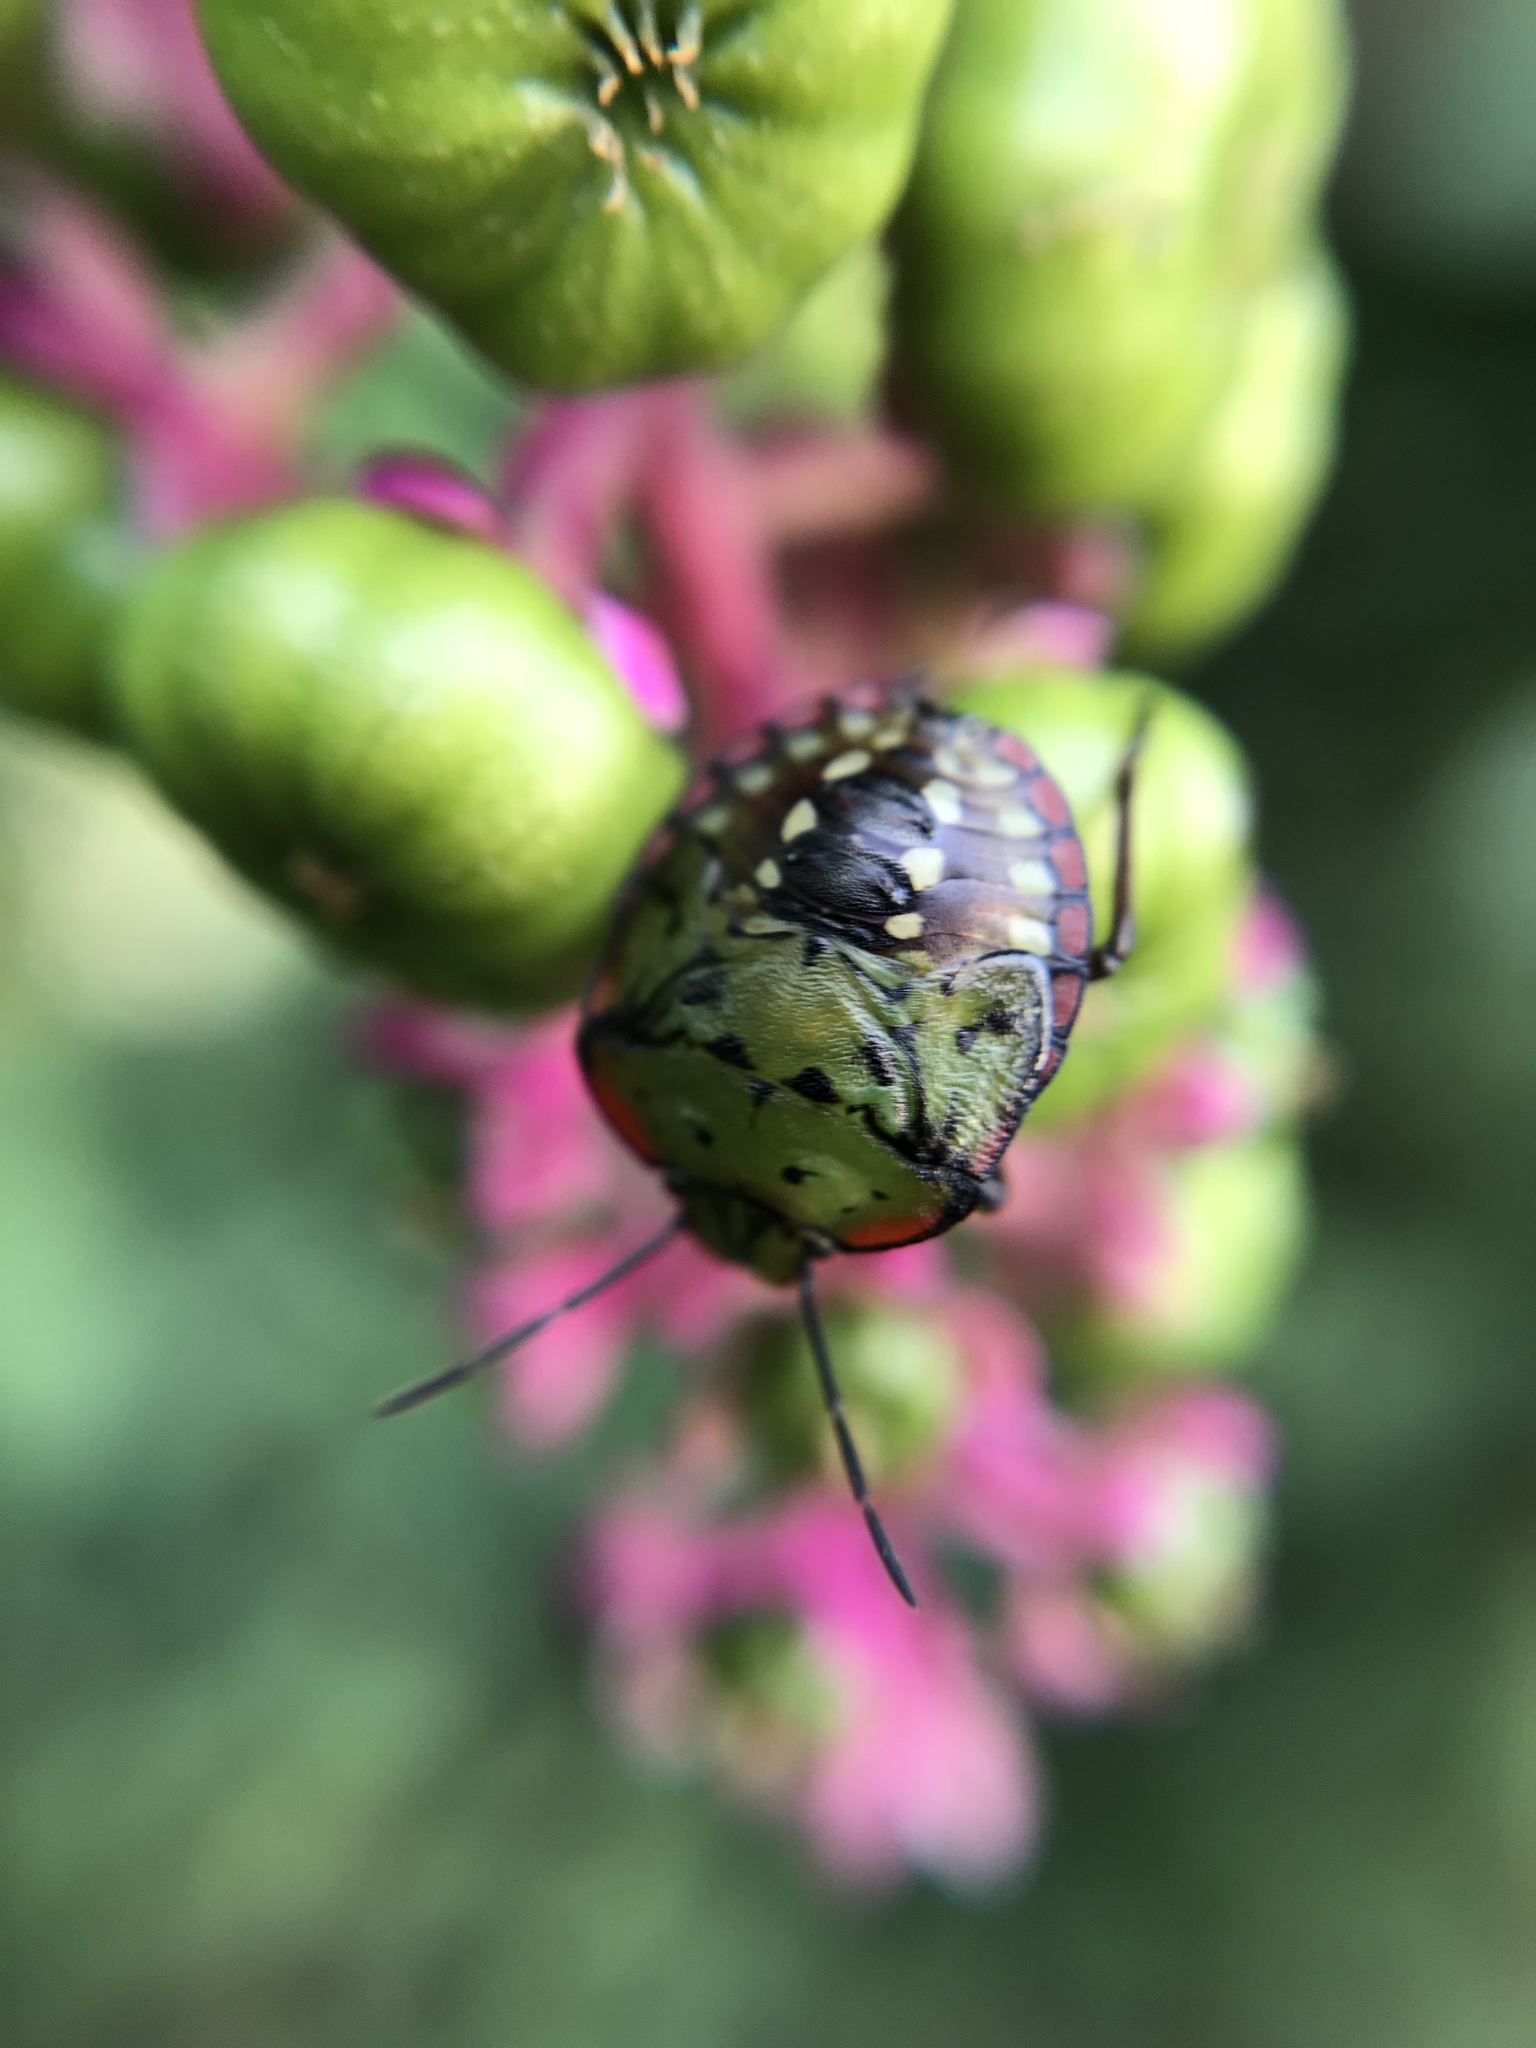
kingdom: Animalia
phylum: Arthropoda
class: Insecta
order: Hemiptera
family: Pentatomidae
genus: Nezara
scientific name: Nezara viridula
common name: Southern green stink bug
